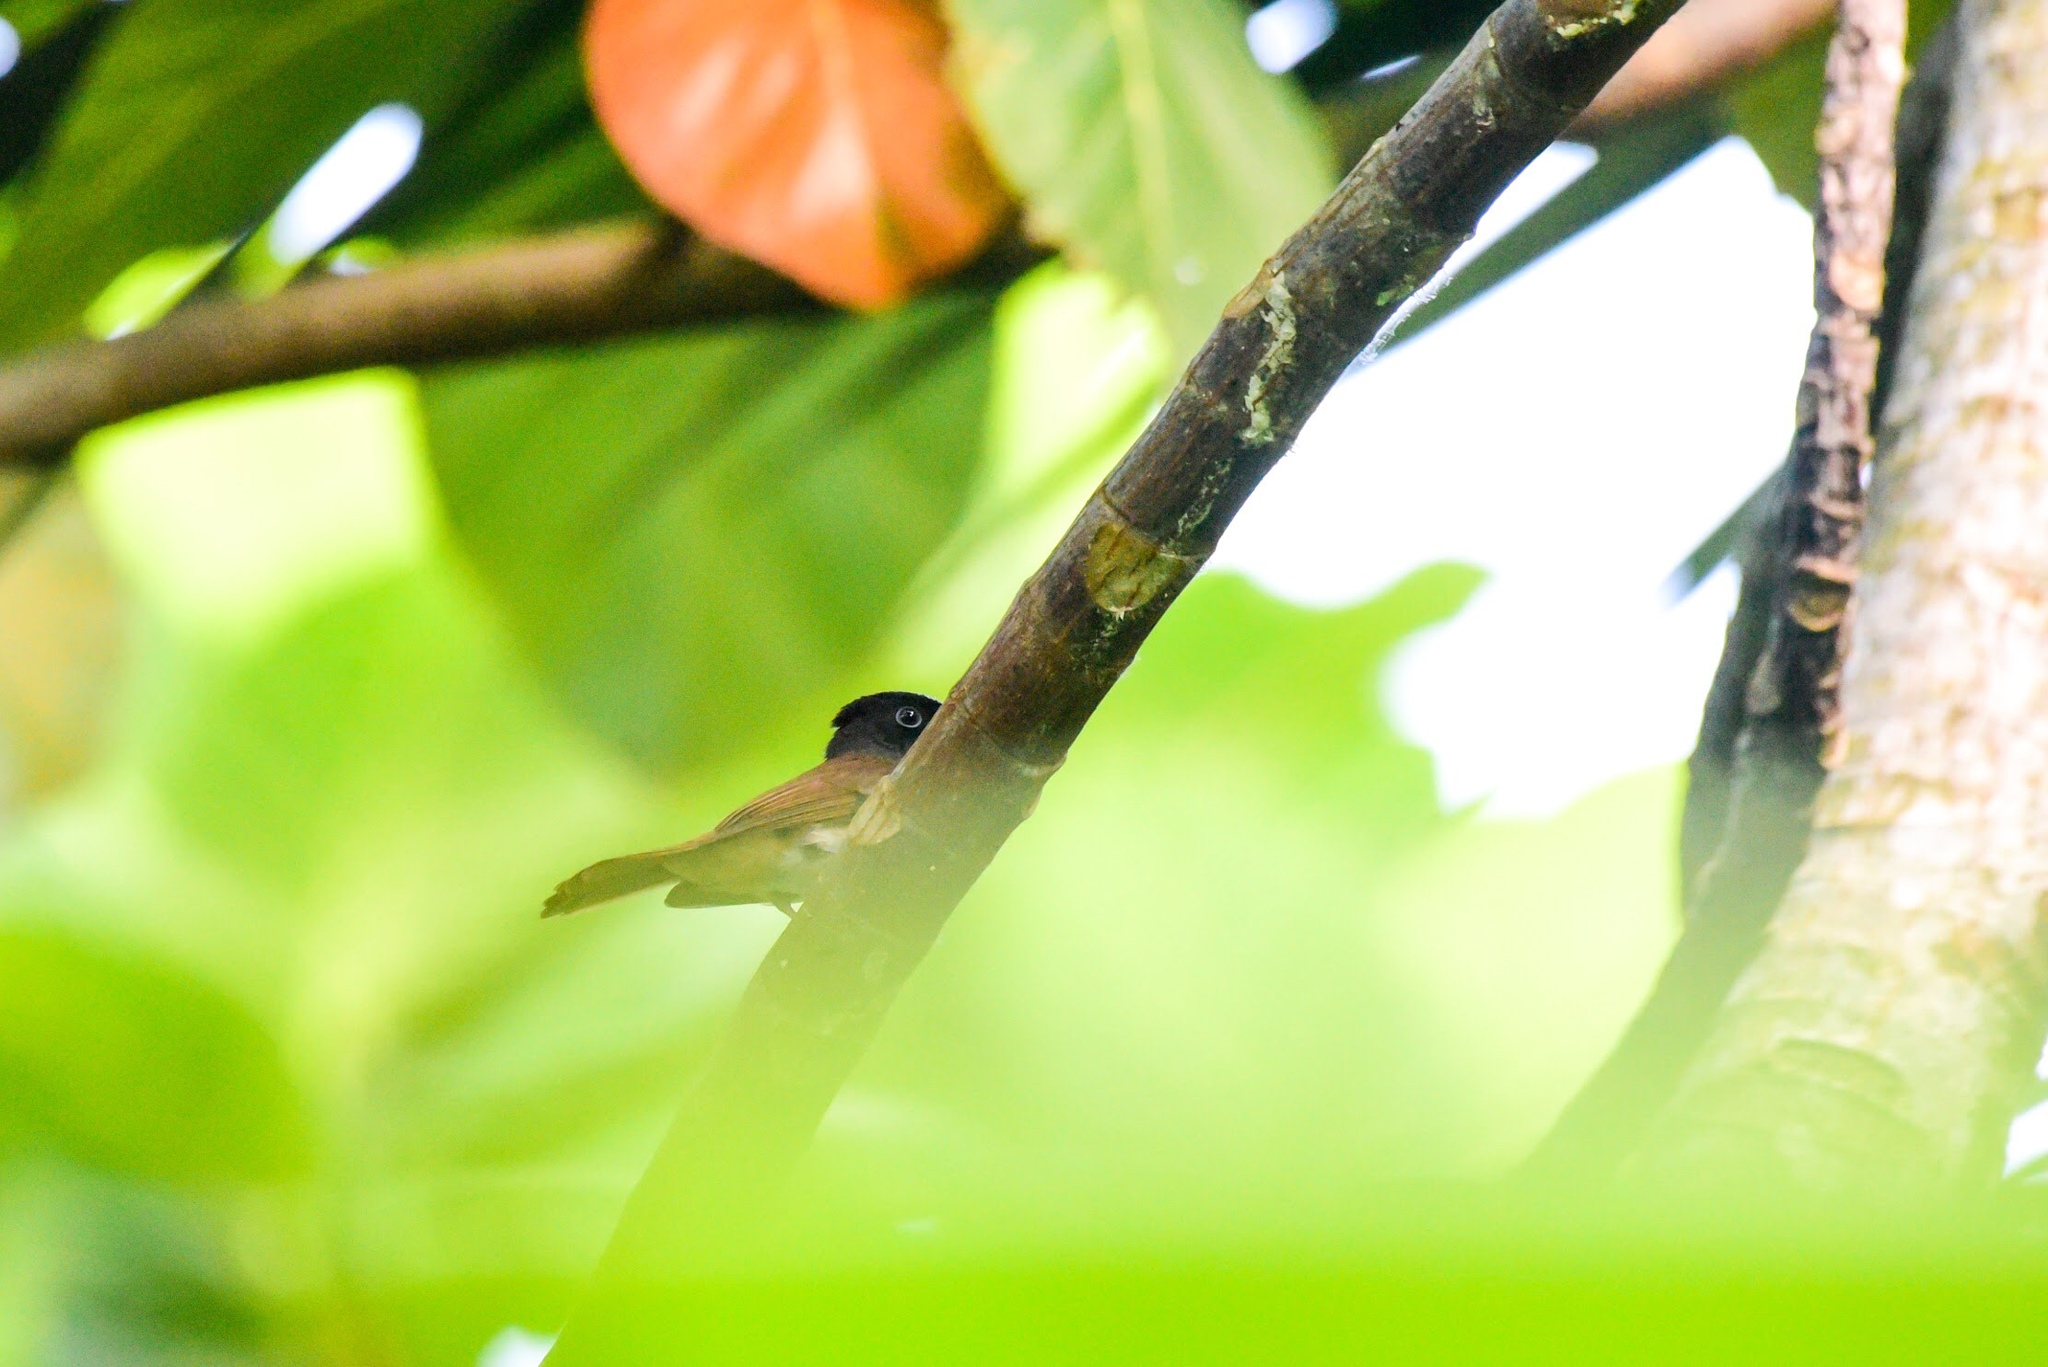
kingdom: Animalia
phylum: Chordata
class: Aves
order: Passeriformes
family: Monarchidae
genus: Terpsiphone
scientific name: Terpsiphone atrocaudata
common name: Japanese paradise flycatcher
